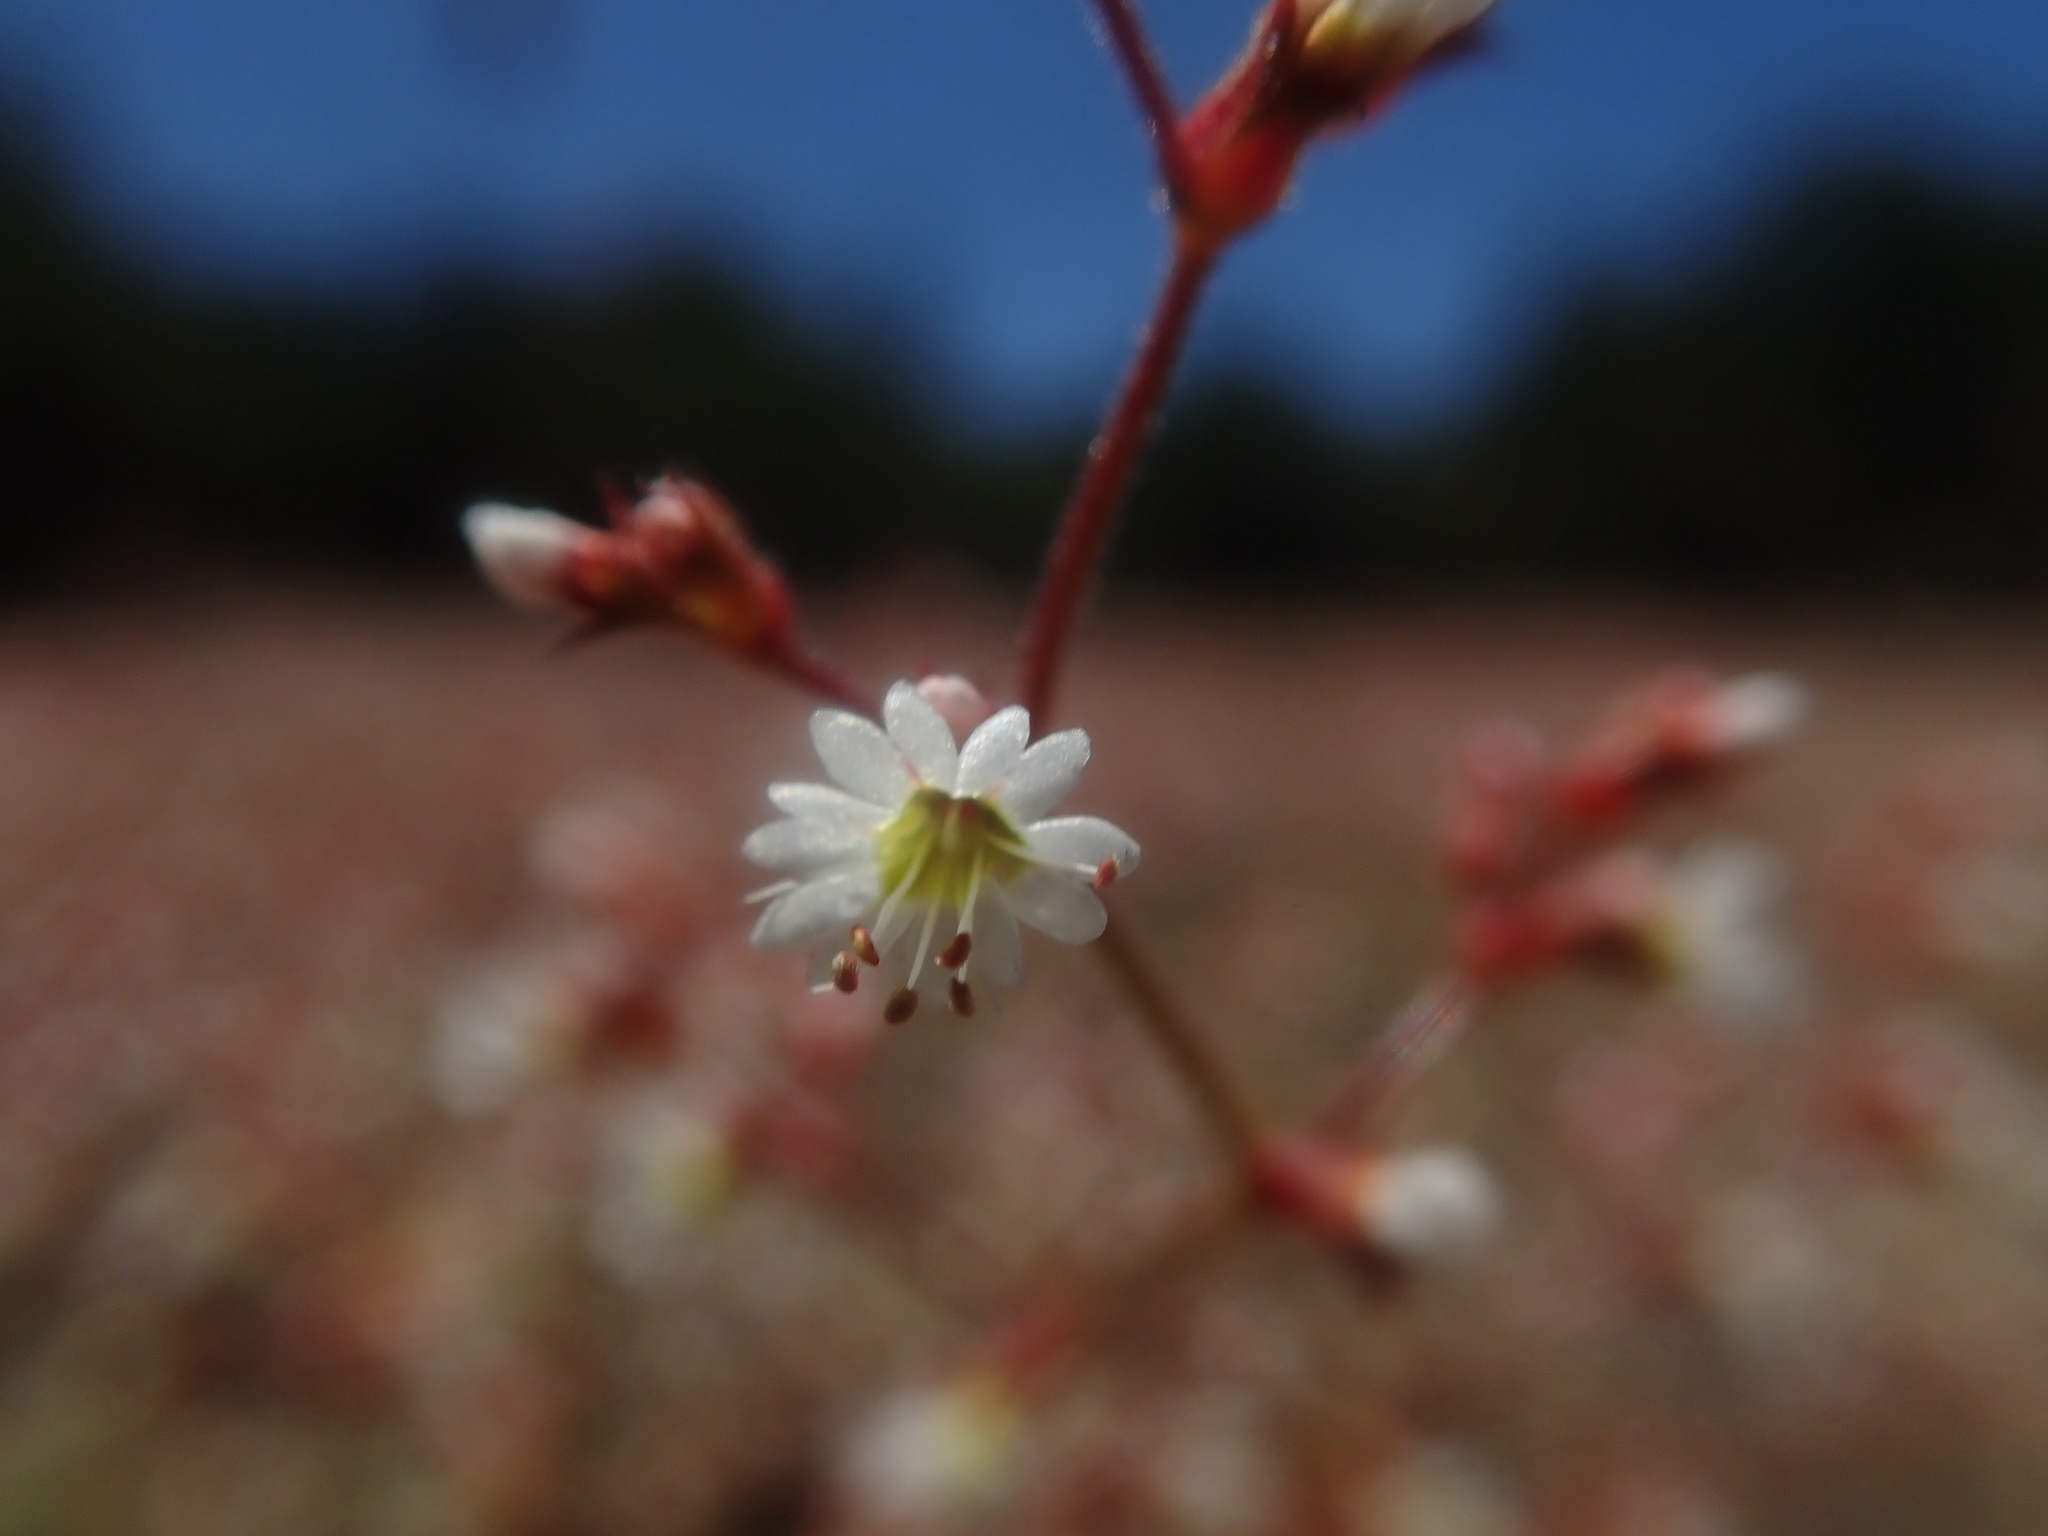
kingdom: Plantae
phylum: Tracheophyta
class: Magnoliopsida
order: Caryophyllales
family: Polygonaceae
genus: Systenotheca
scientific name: Systenotheca vortriedei
